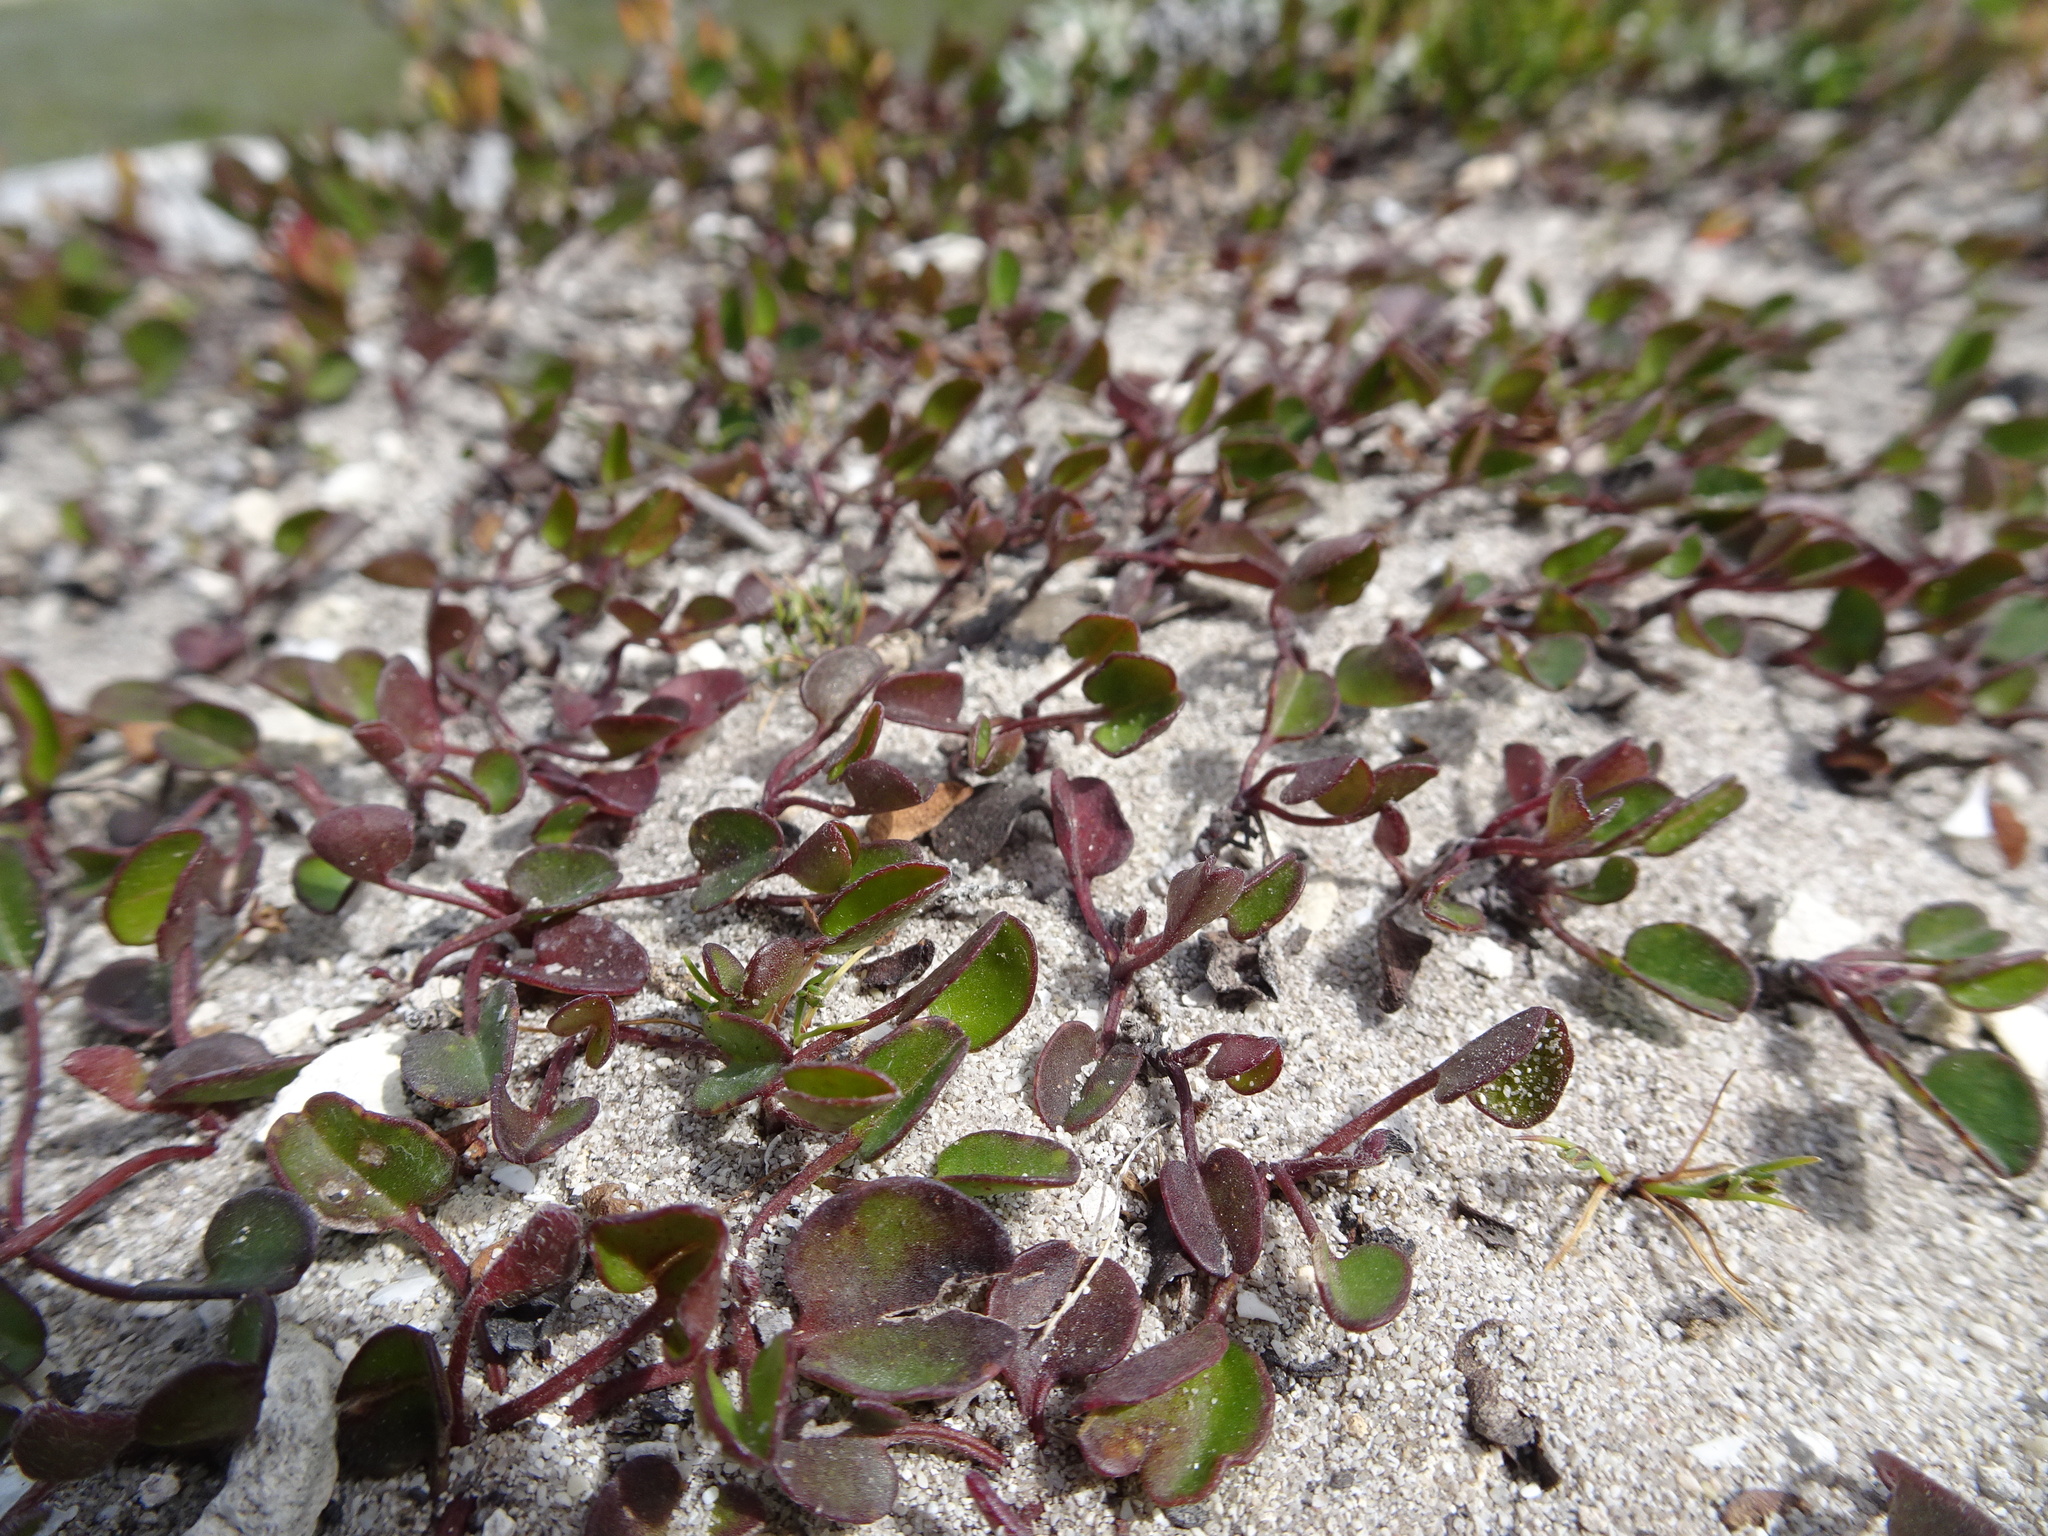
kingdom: Plantae
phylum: Tracheophyta
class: Magnoliopsida
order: Solanales
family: Convolvulaceae
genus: Falkia
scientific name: Falkia repens
